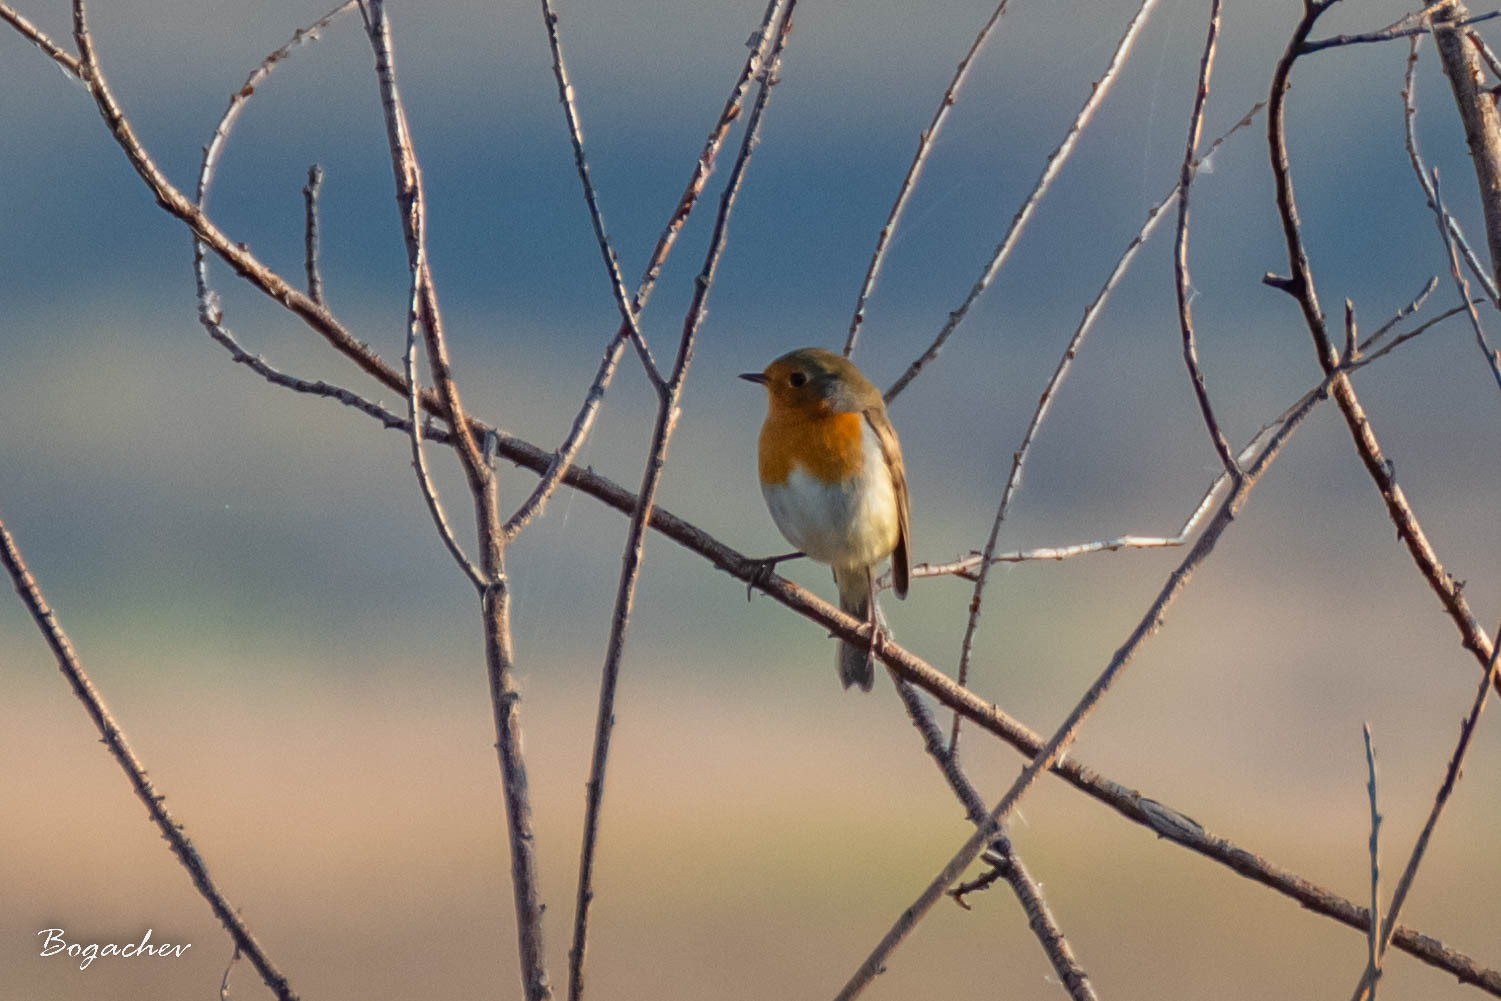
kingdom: Animalia
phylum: Chordata
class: Aves
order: Passeriformes
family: Muscicapidae
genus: Erithacus
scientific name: Erithacus rubecula
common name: European robin
